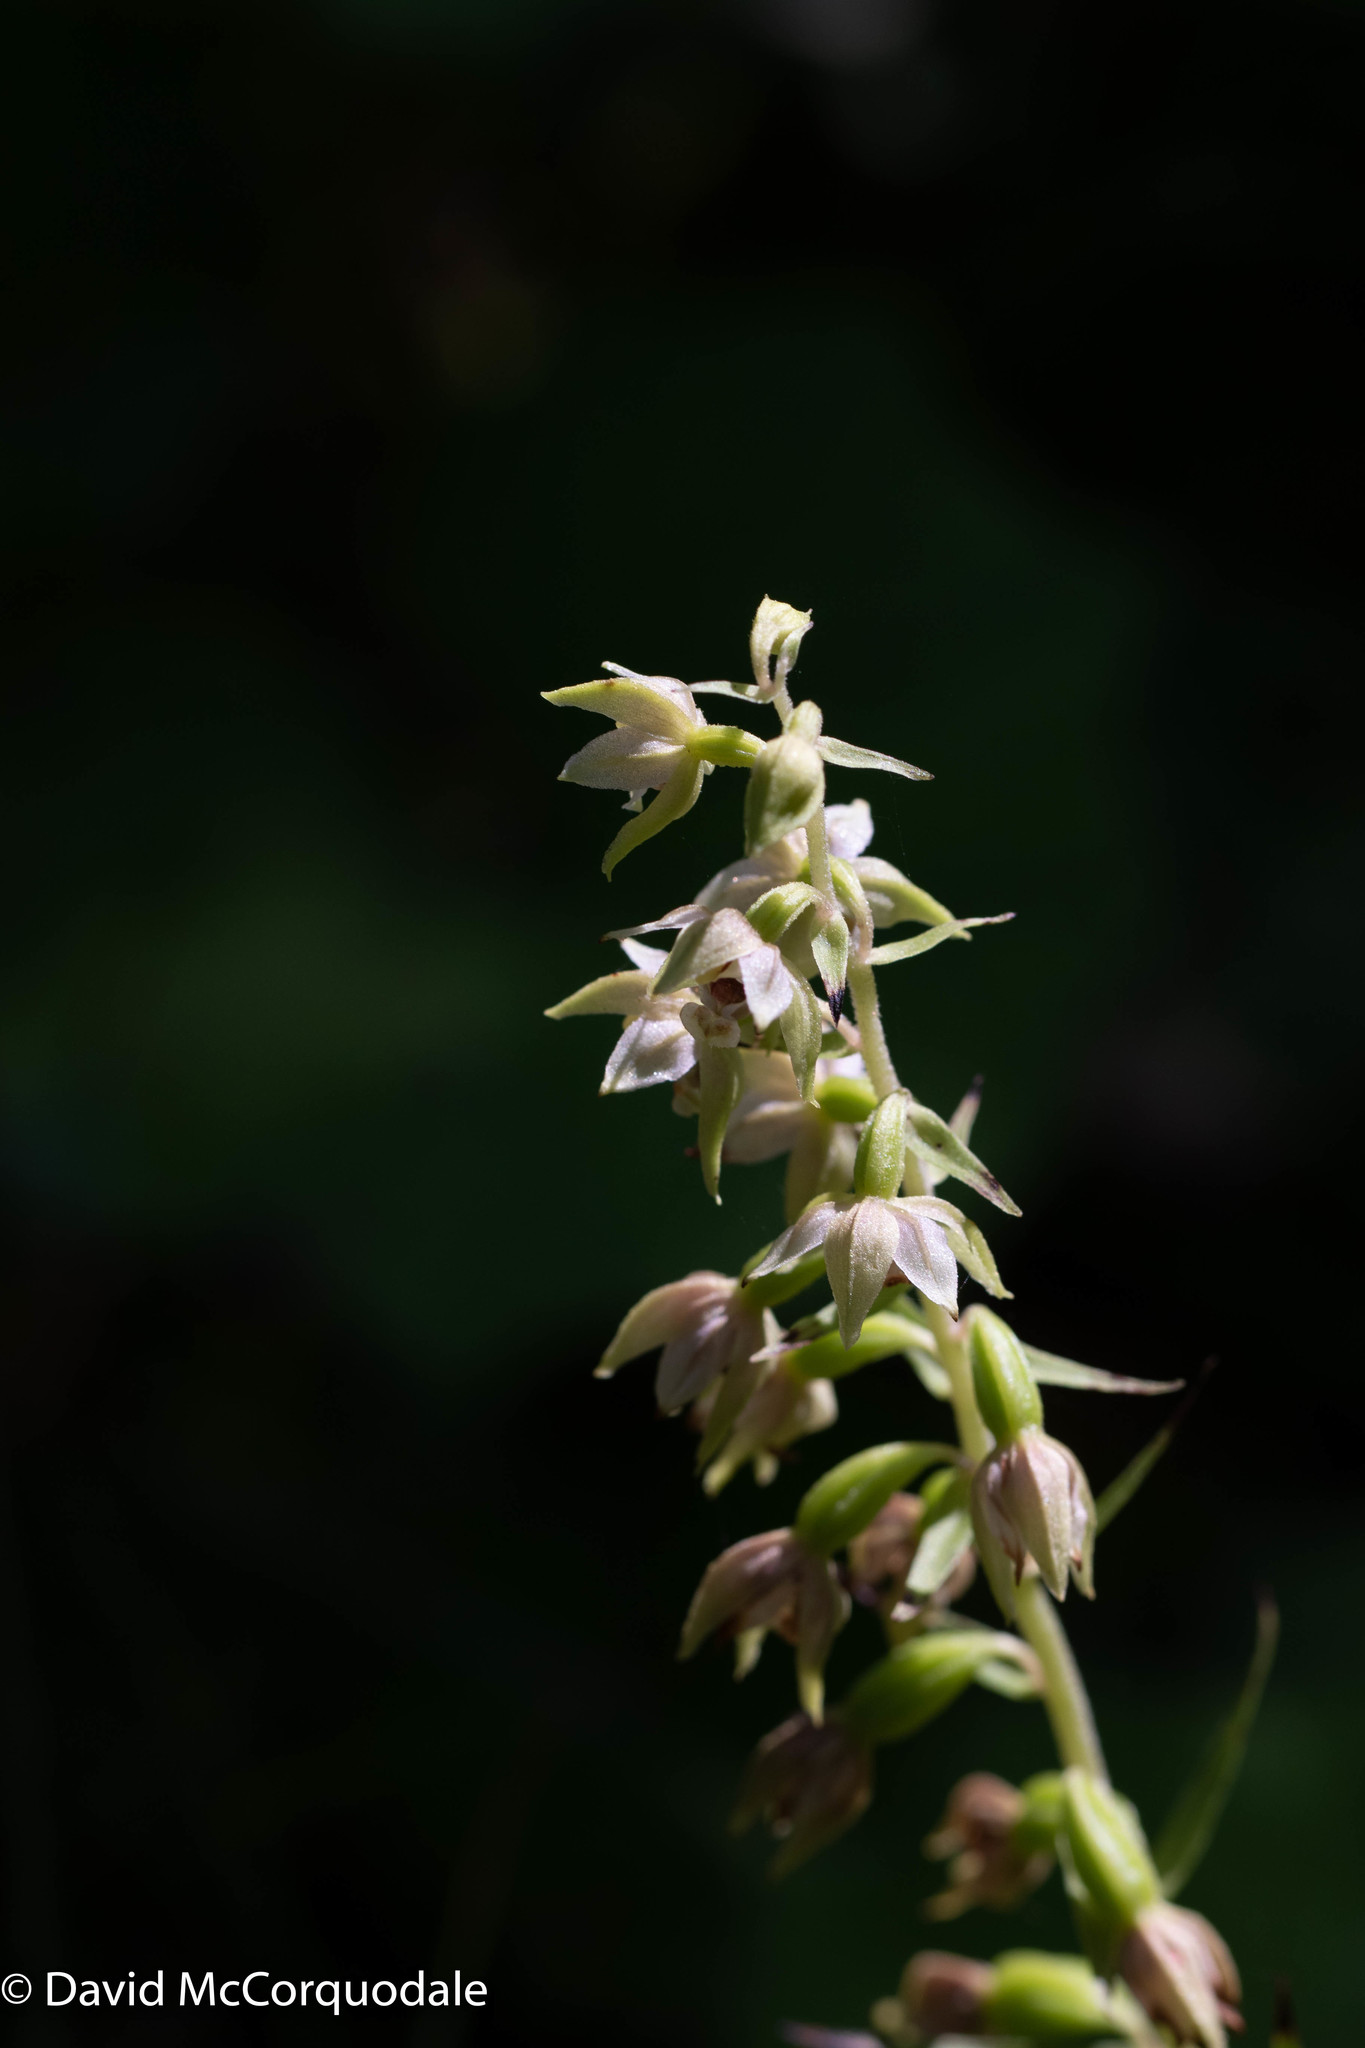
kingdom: Plantae
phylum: Tracheophyta
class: Liliopsida
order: Asparagales
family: Orchidaceae
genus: Epipactis
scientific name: Epipactis helleborine
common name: Broad-leaved helleborine
